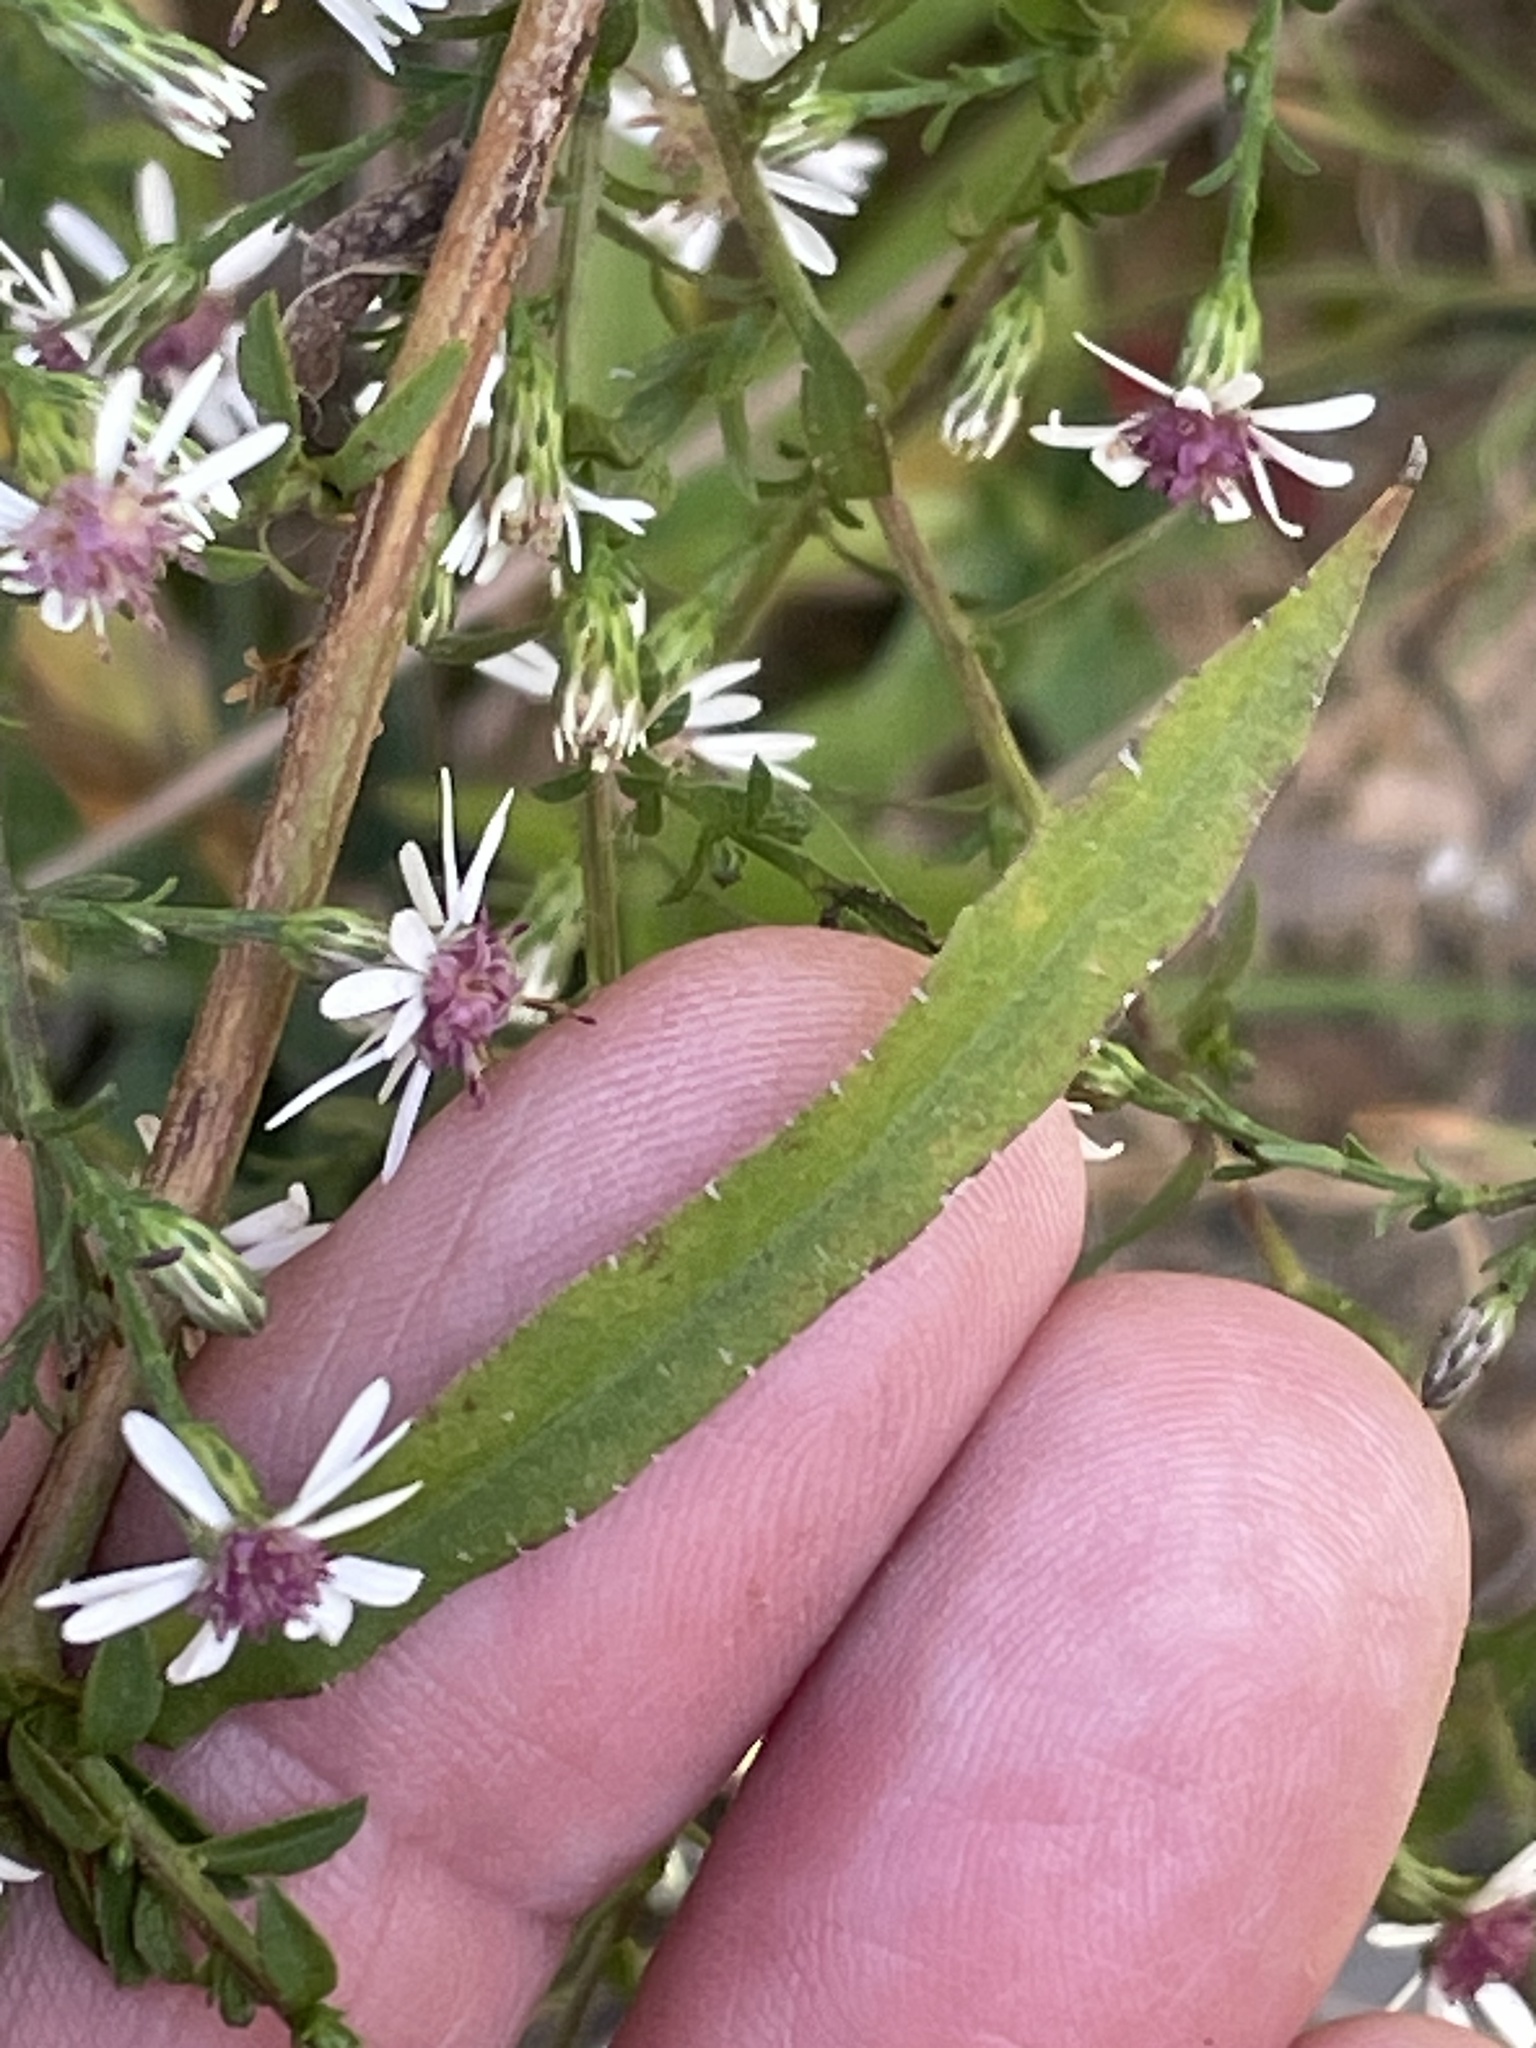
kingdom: Plantae
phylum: Tracheophyta
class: Magnoliopsida
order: Asterales
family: Asteraceae
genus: Symphyotrichum
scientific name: Symphyotrichum lateriflorum
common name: Calico aster
